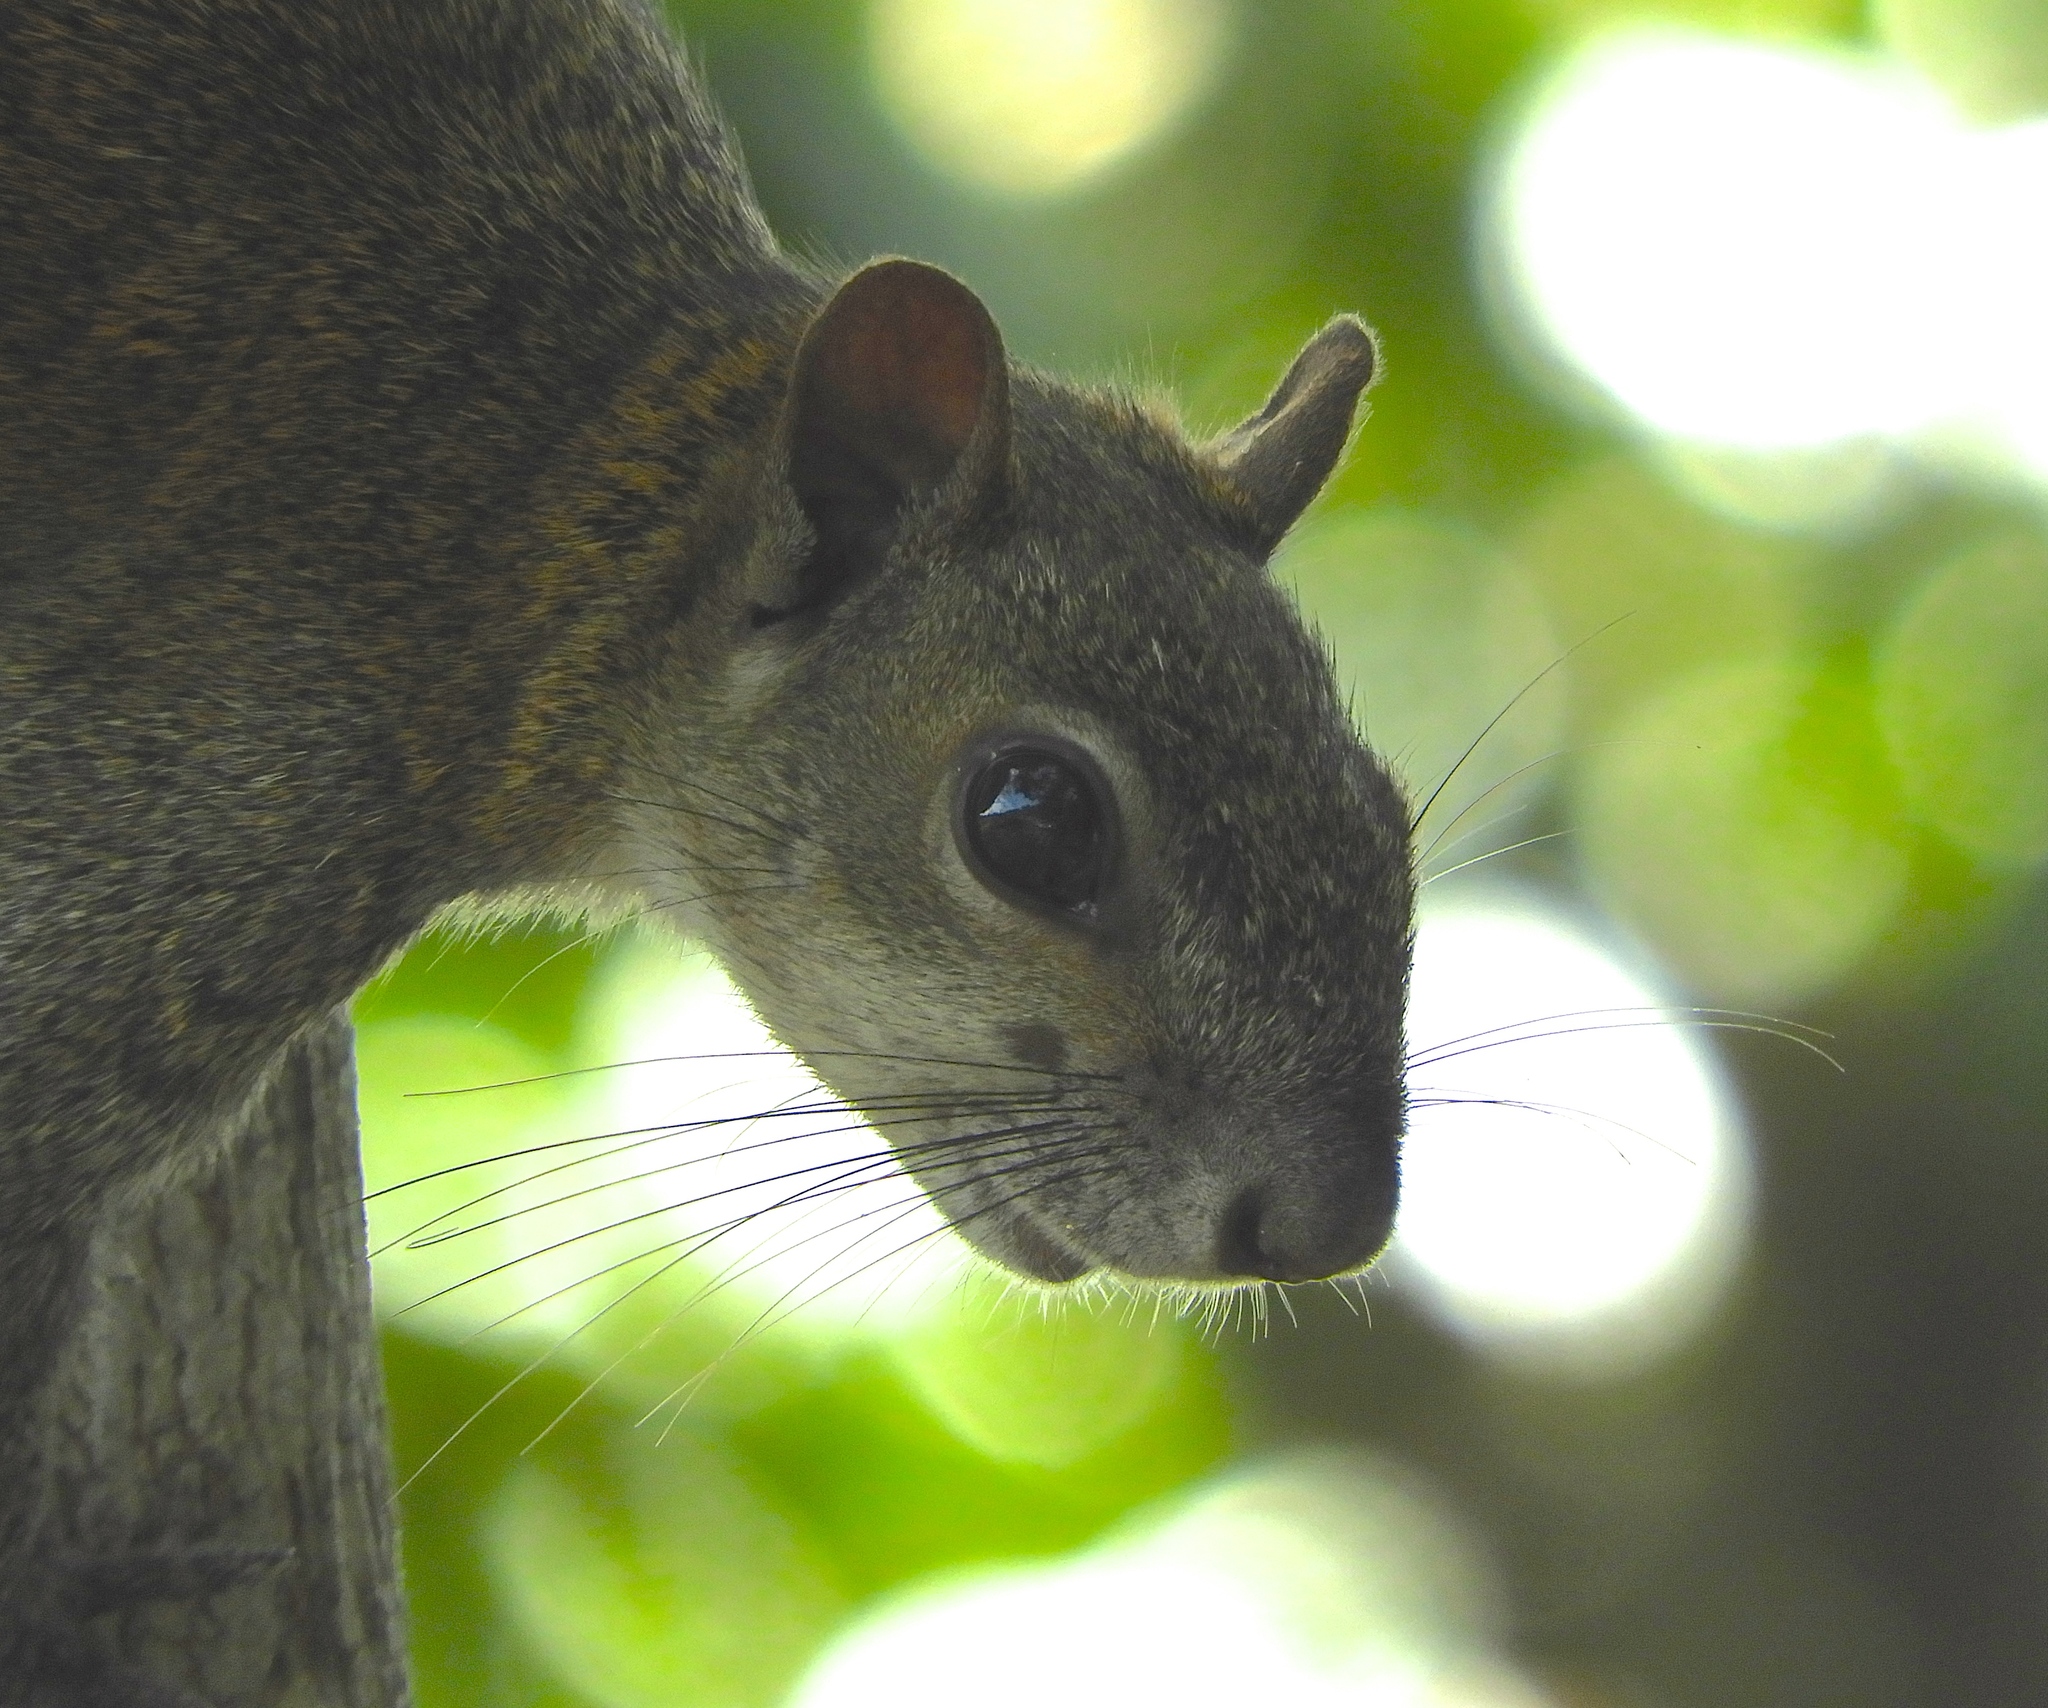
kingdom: Animalia
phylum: Chordata
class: Mammalia
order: Rodentia
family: Sciuridae
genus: Sciurus
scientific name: Sciurus colliaei
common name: Collie's squirrel
